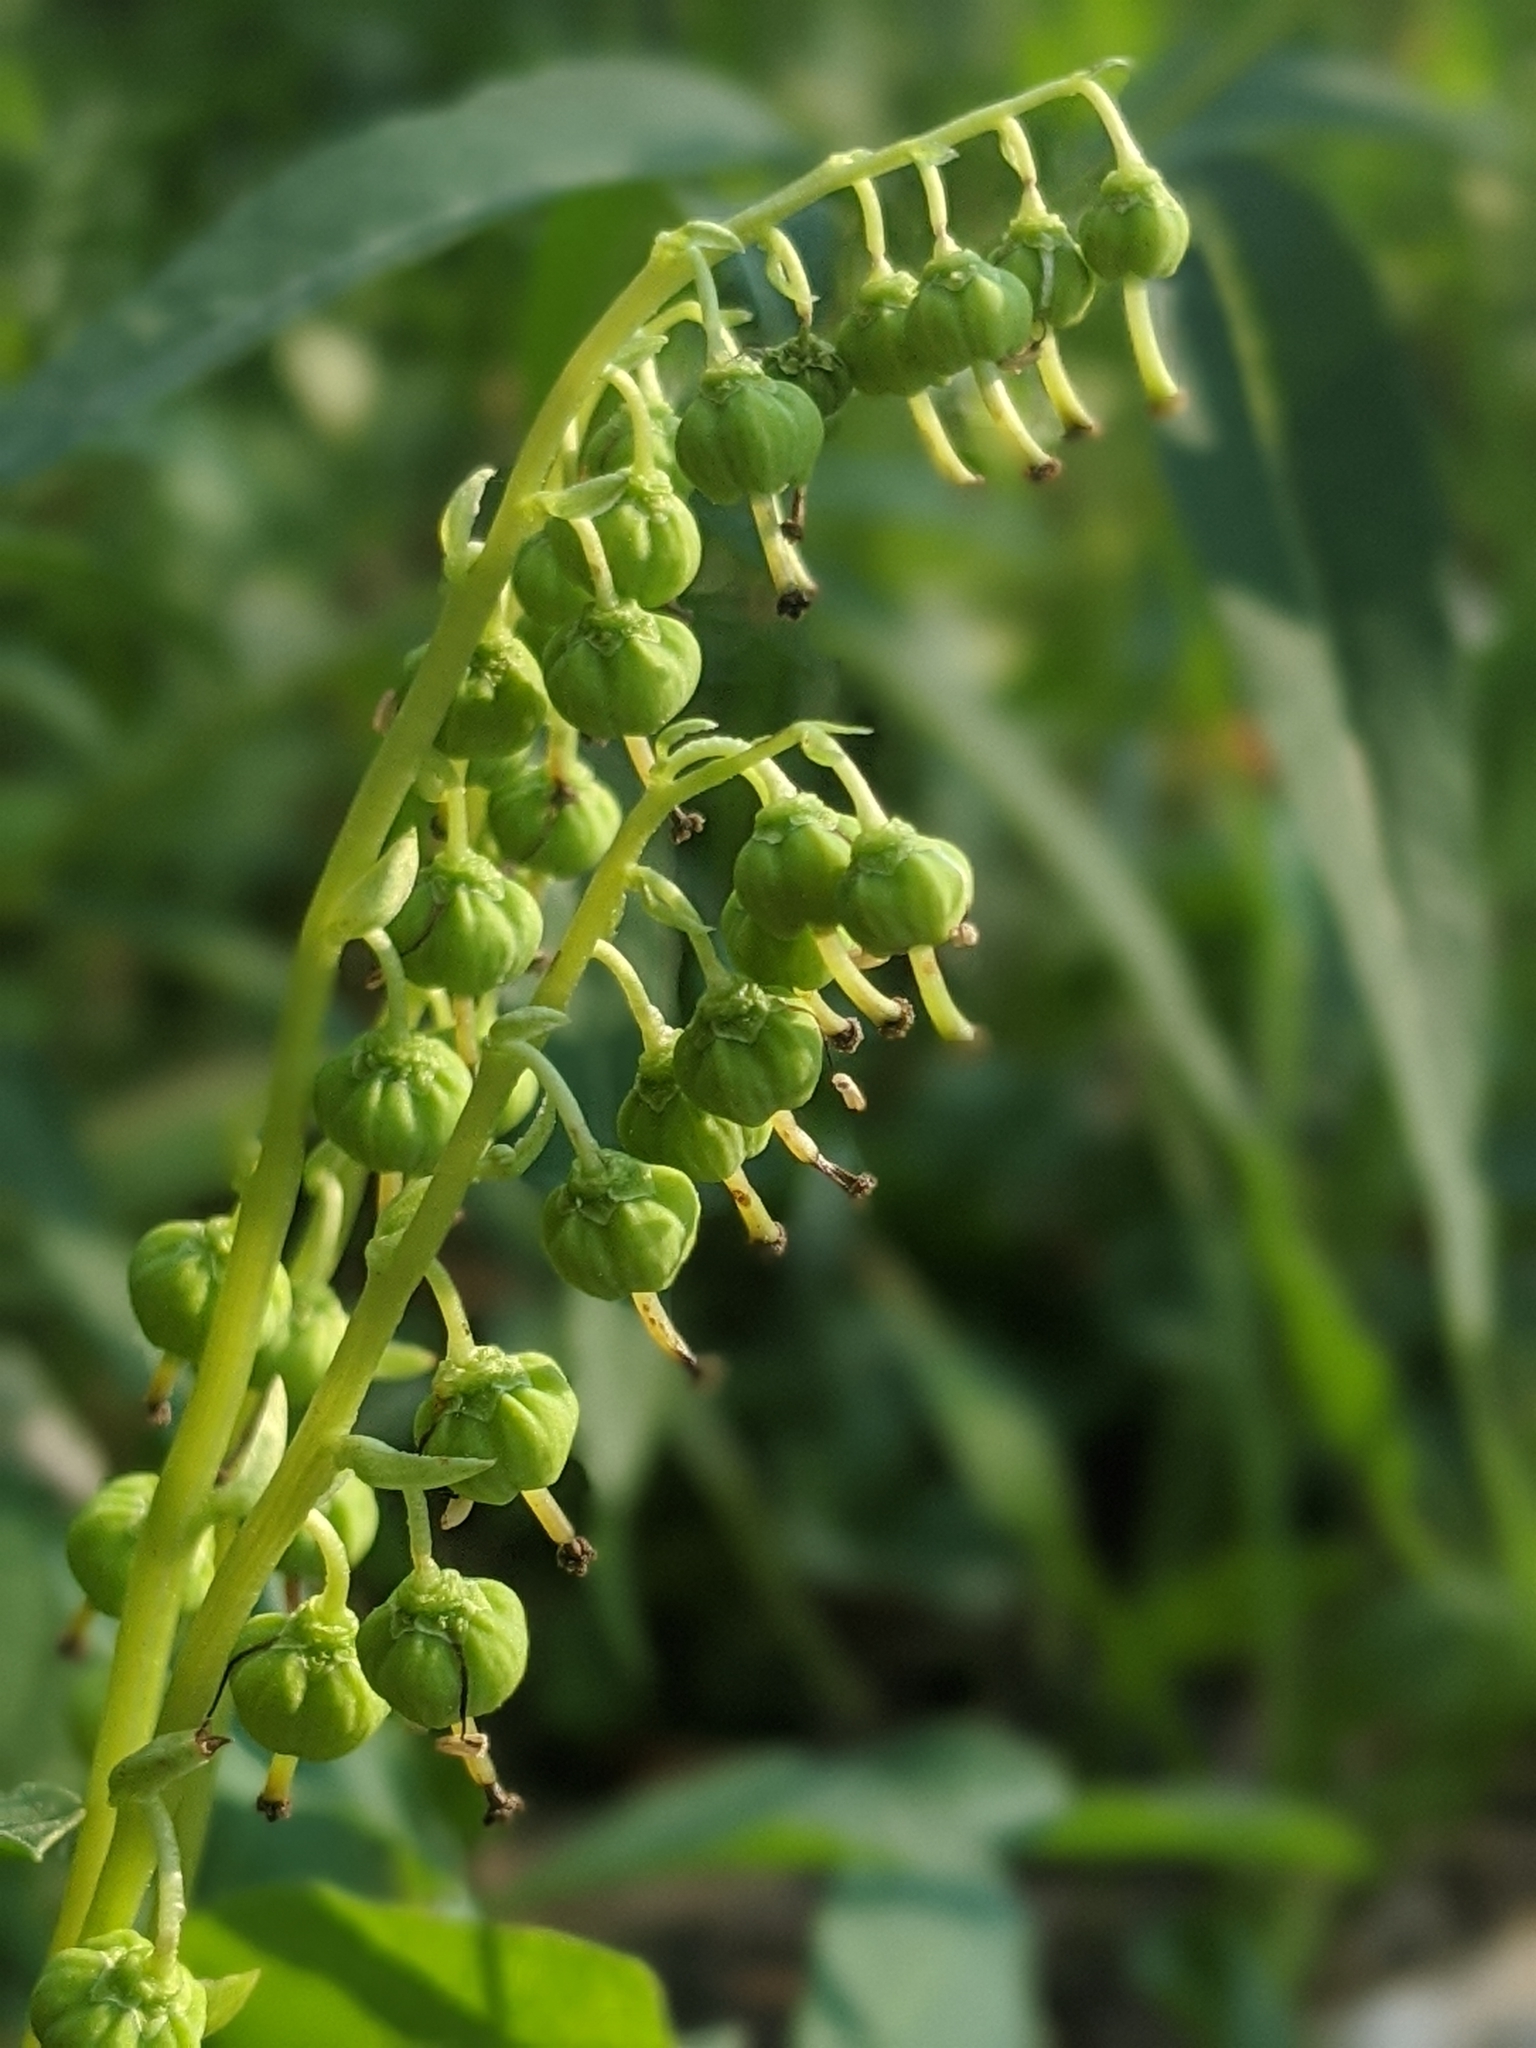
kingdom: Plantae
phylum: Tracheophyta
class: Magnoliopsida
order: Ericales
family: Ericaceae
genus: Orthilia
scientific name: Orthilia secunda
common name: One-sided orthilia
